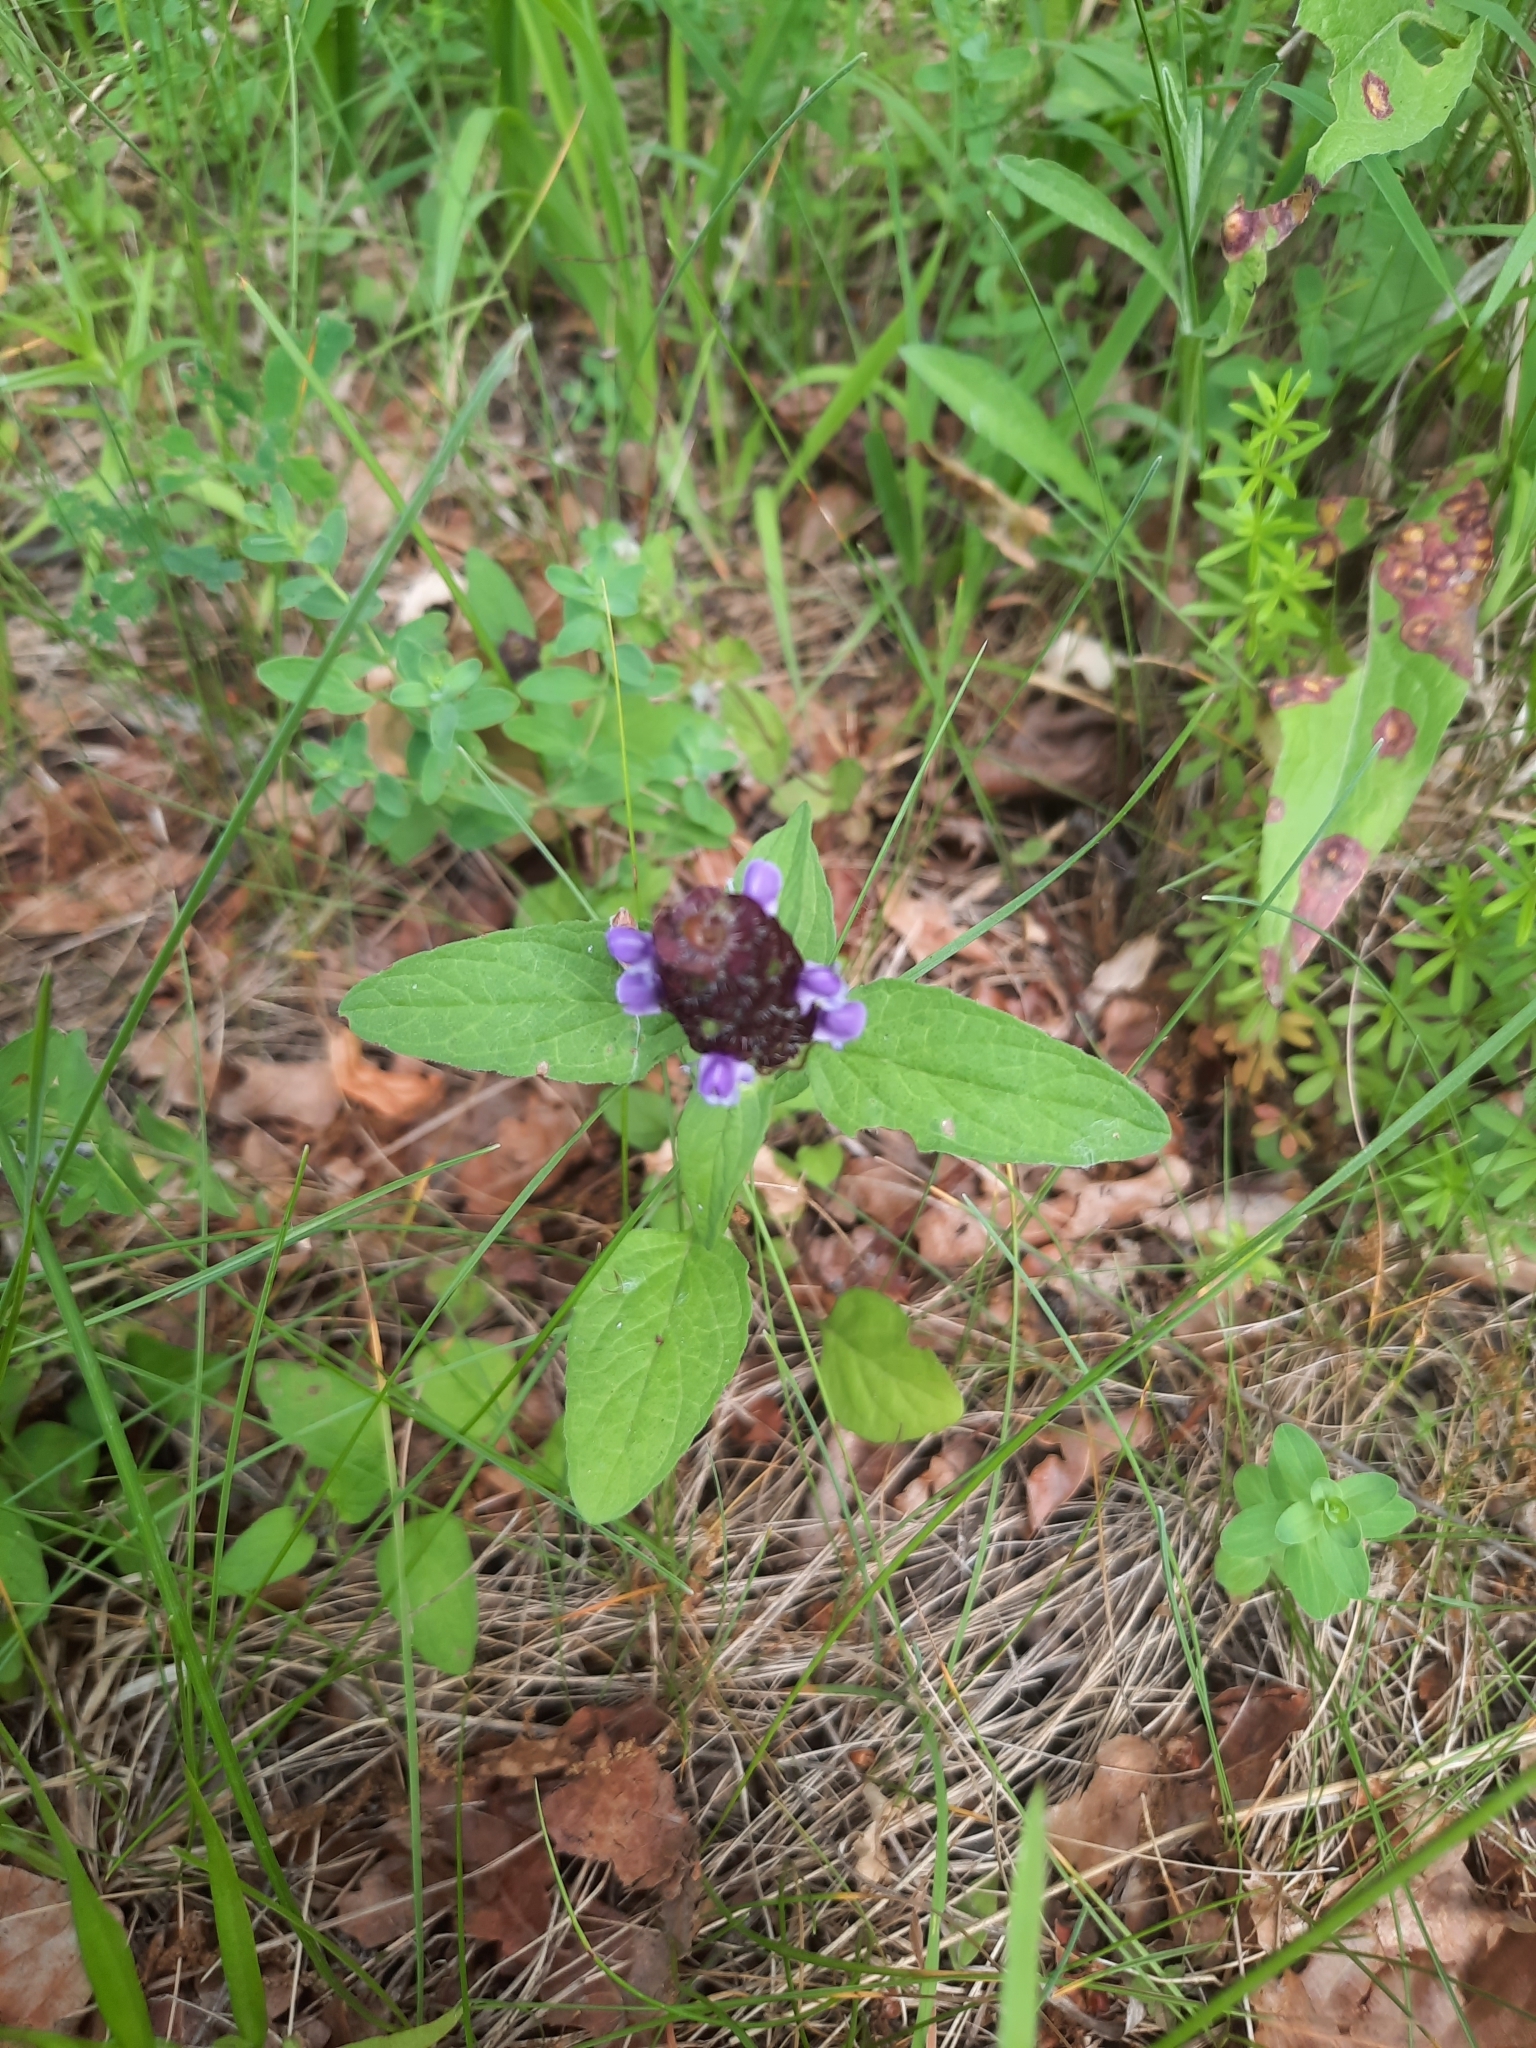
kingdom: Plantae
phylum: Tracheophyta
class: Magnoliopsida
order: Lamiales
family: Lamiaceae
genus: Prunella
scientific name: Prunella vulgaris
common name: Heal-all
